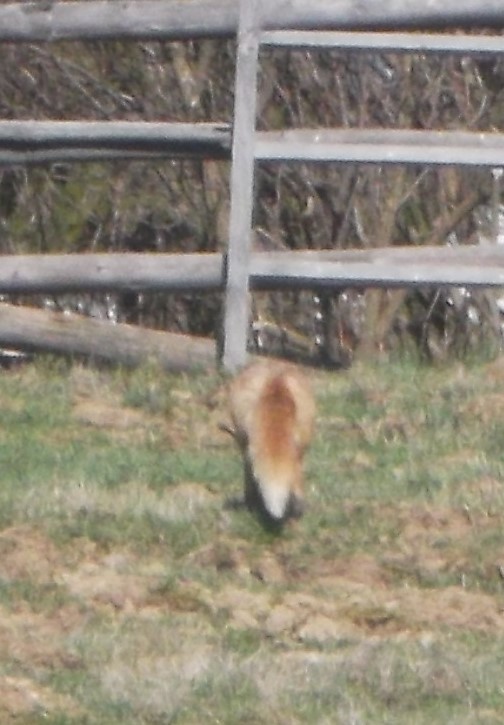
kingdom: Animalia
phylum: Chordata
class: Mammalia
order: Carnivora
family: Canidae
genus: Vulpes
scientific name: Vulpes vulpes
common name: Red fox
